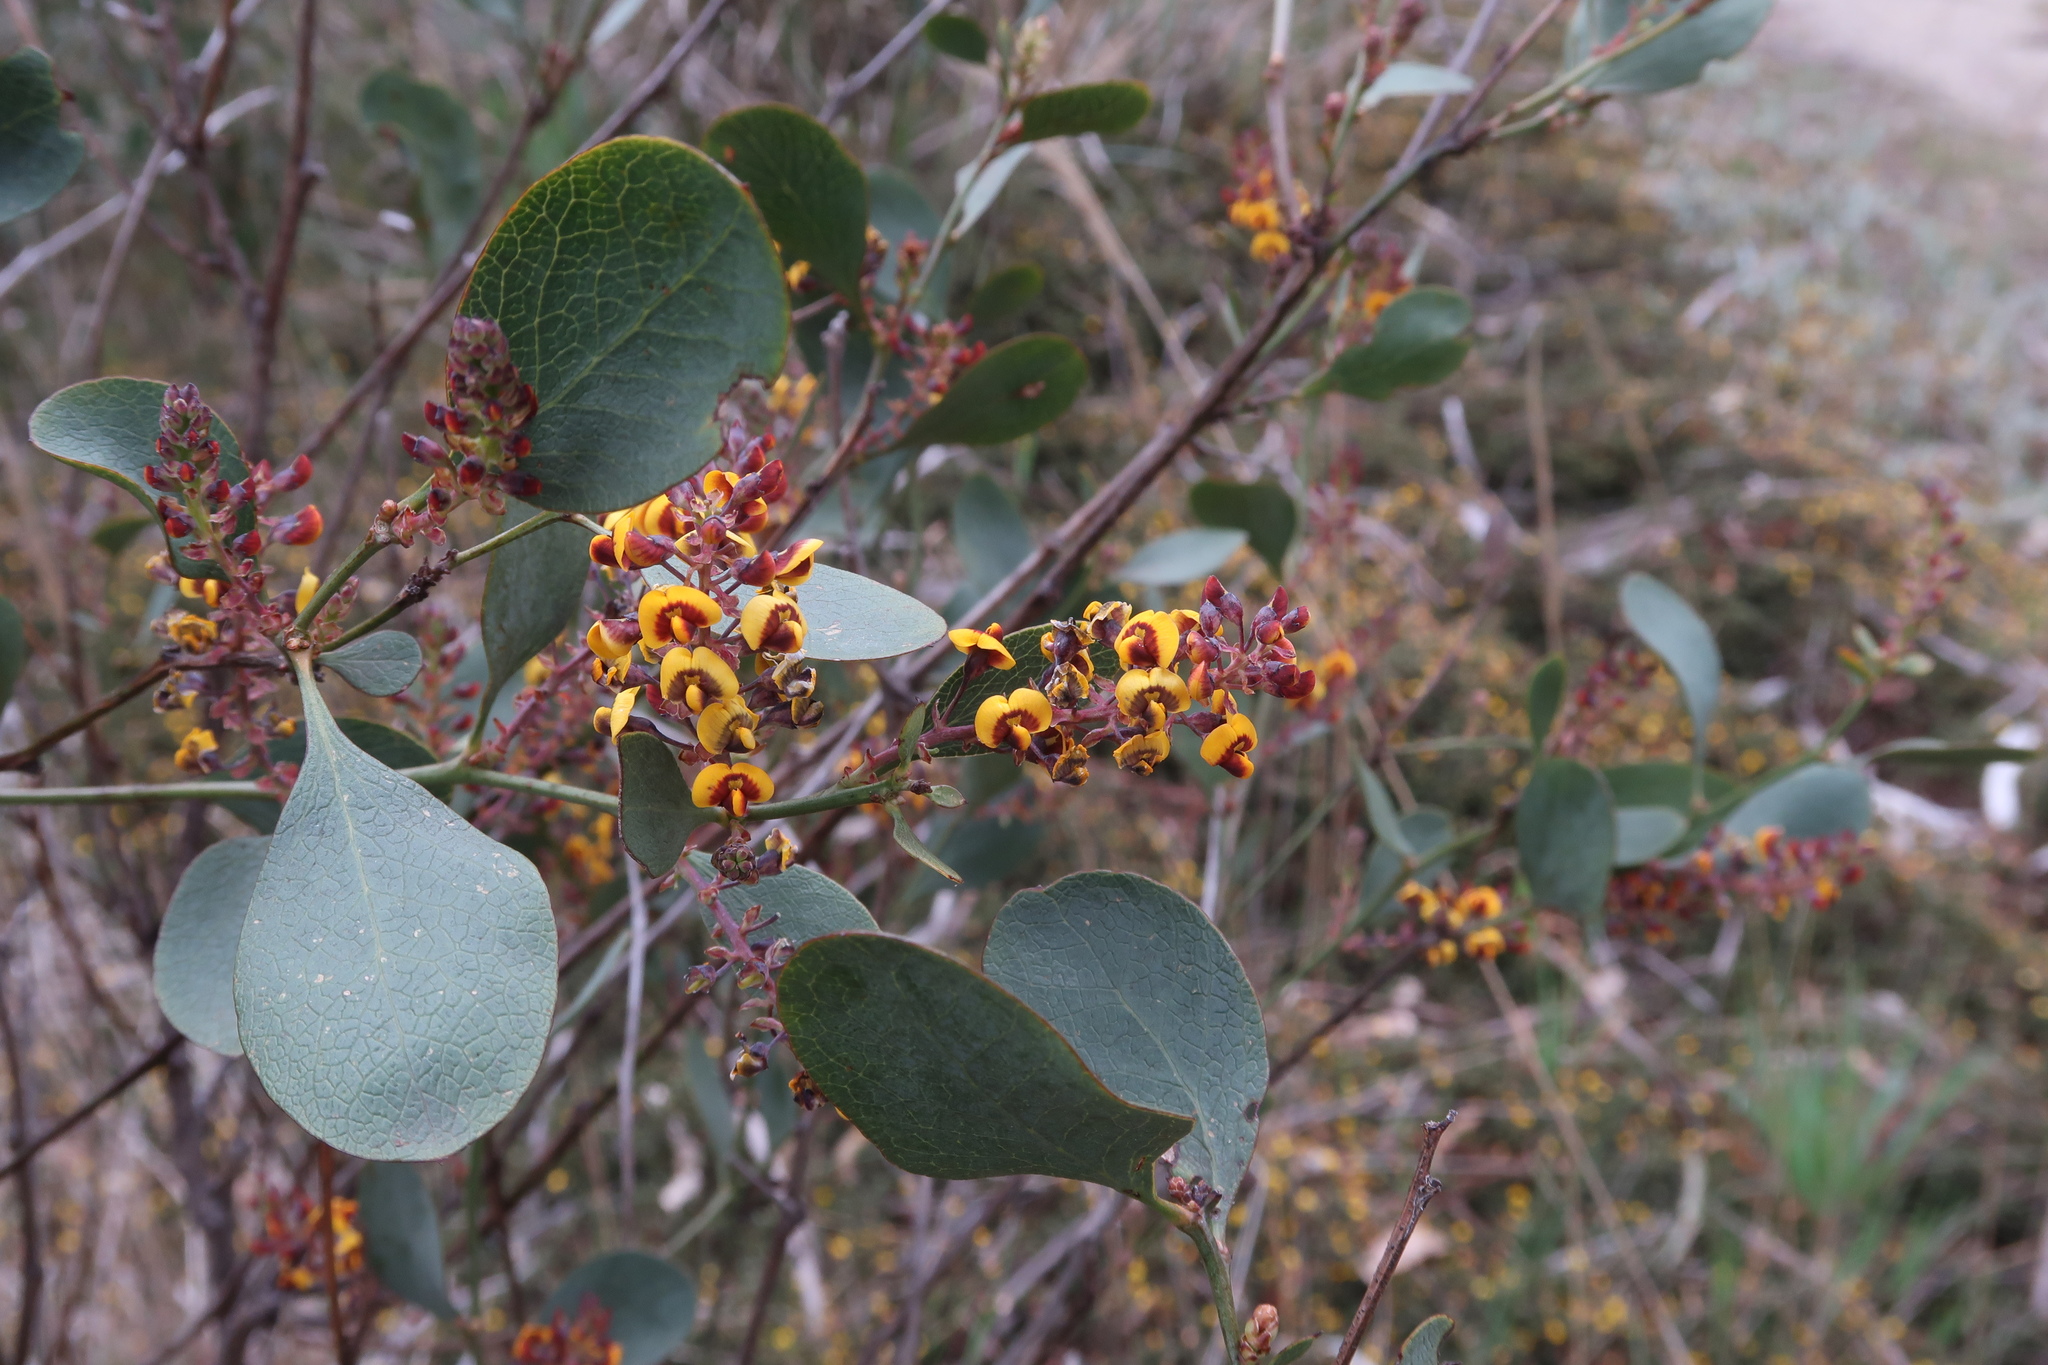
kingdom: Plantae
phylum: Tracheophyta
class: Magnoliopsida
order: Fabales
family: Fabaceae
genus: Daviesia
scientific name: Daviesia latifolia
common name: Hop bitter-pea
